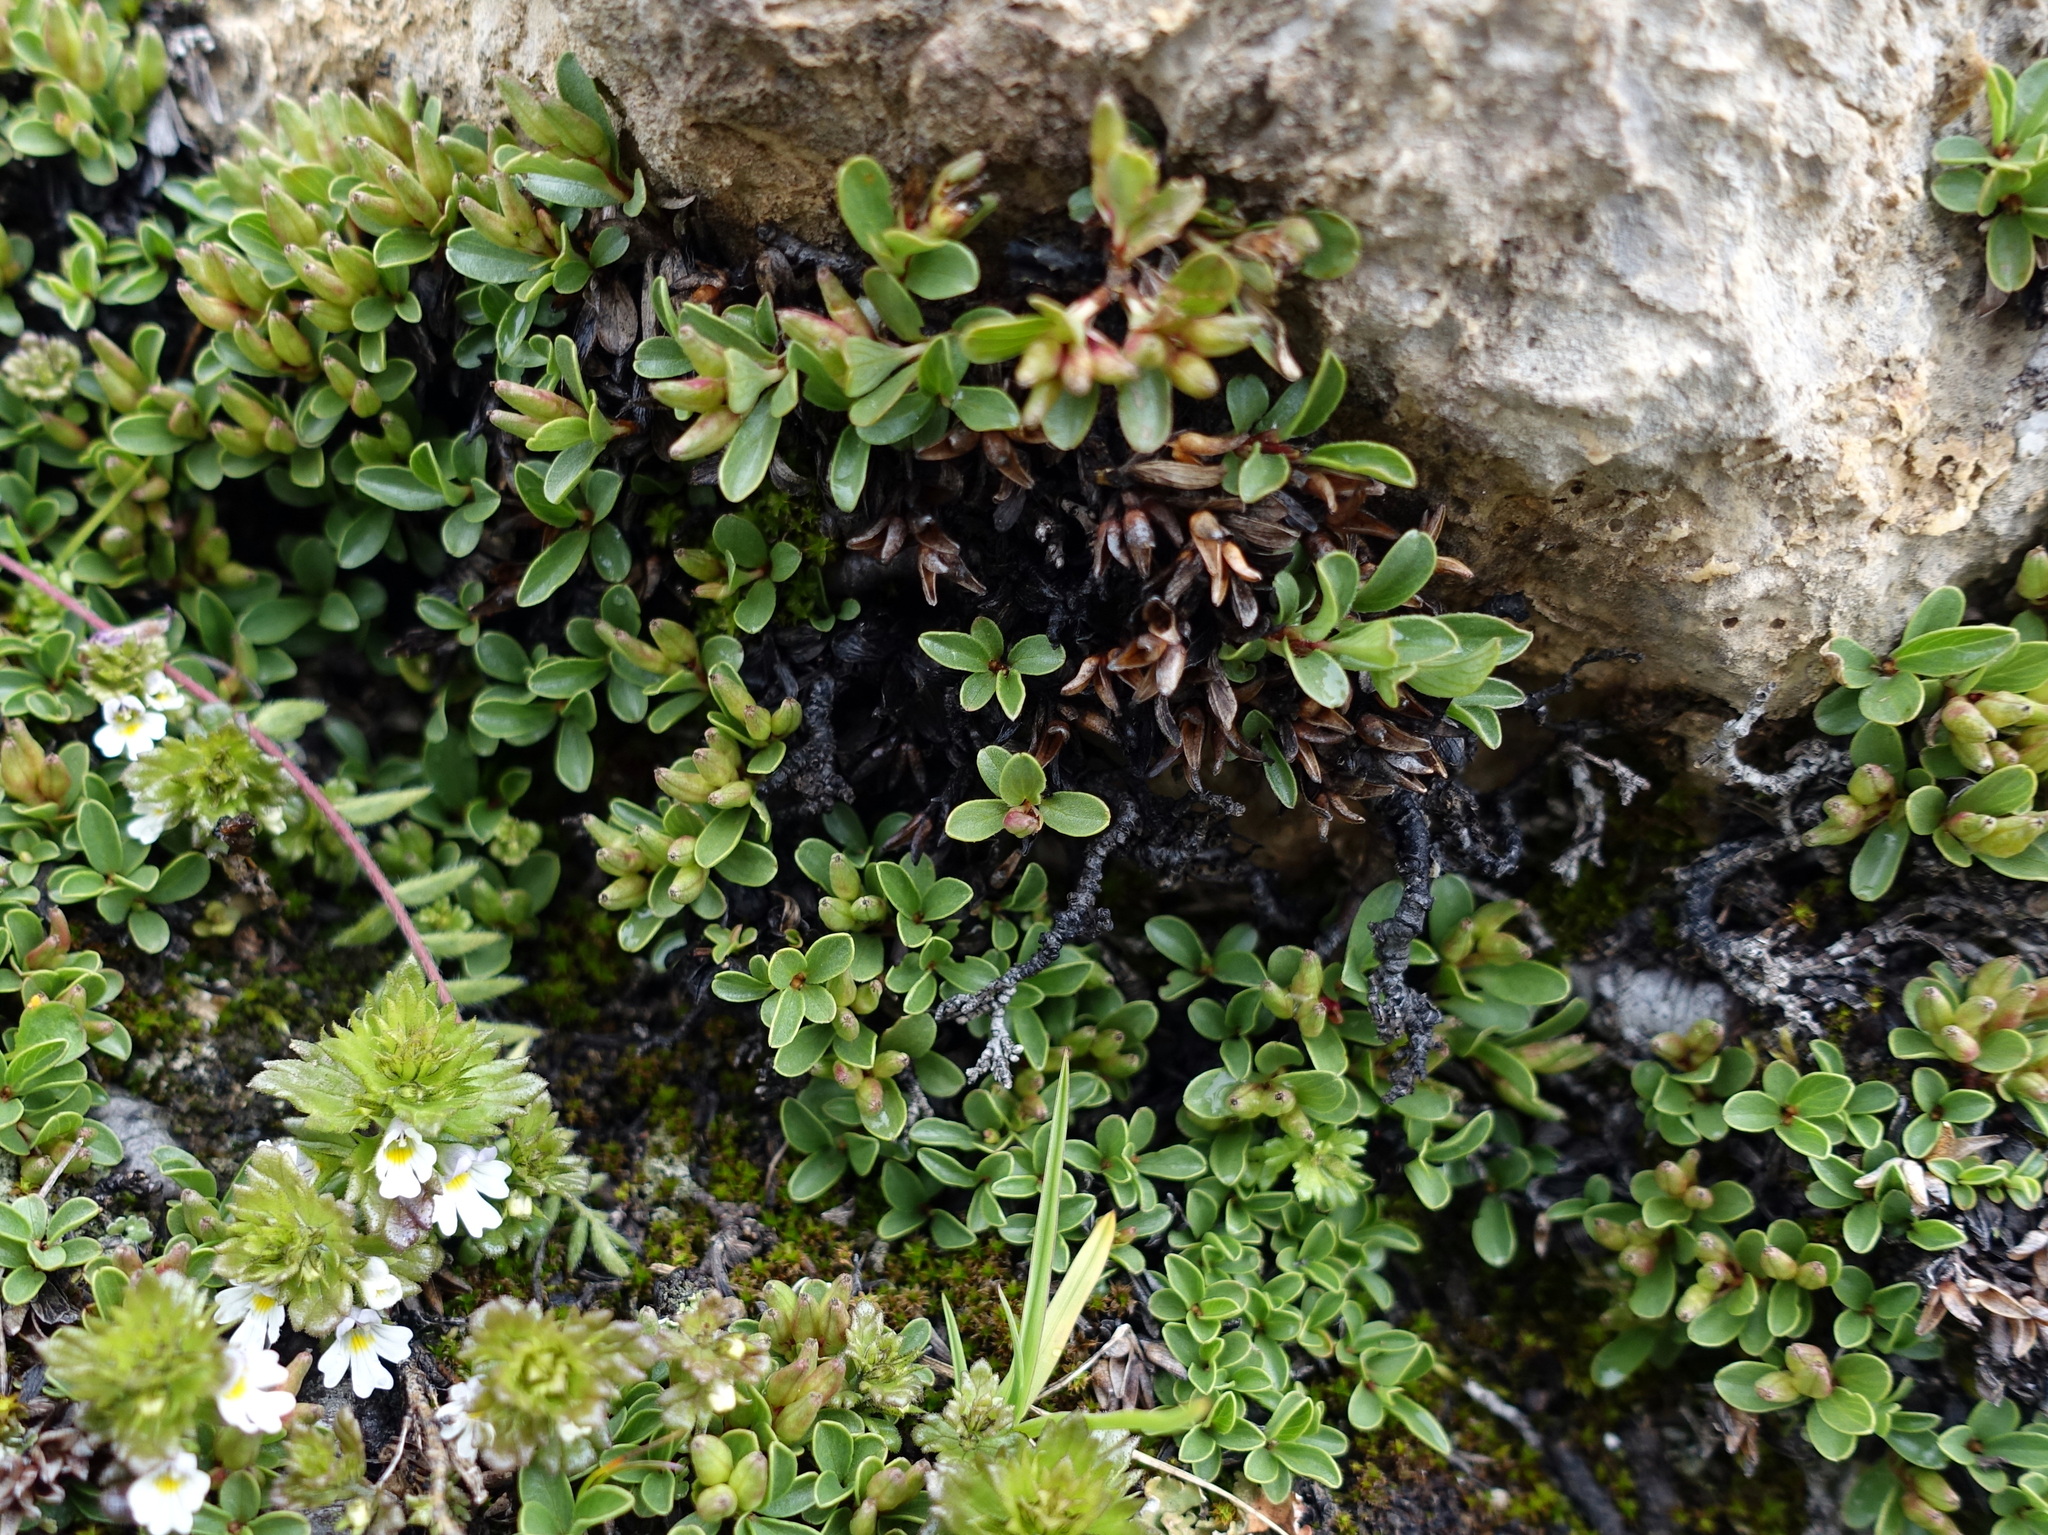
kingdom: Plantae
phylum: Tracheophyta
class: Magnoliopsida
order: Malpighiales
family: Salicaceae
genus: Salix
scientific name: Salix serpillifolia
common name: Thyme-leaf willow
